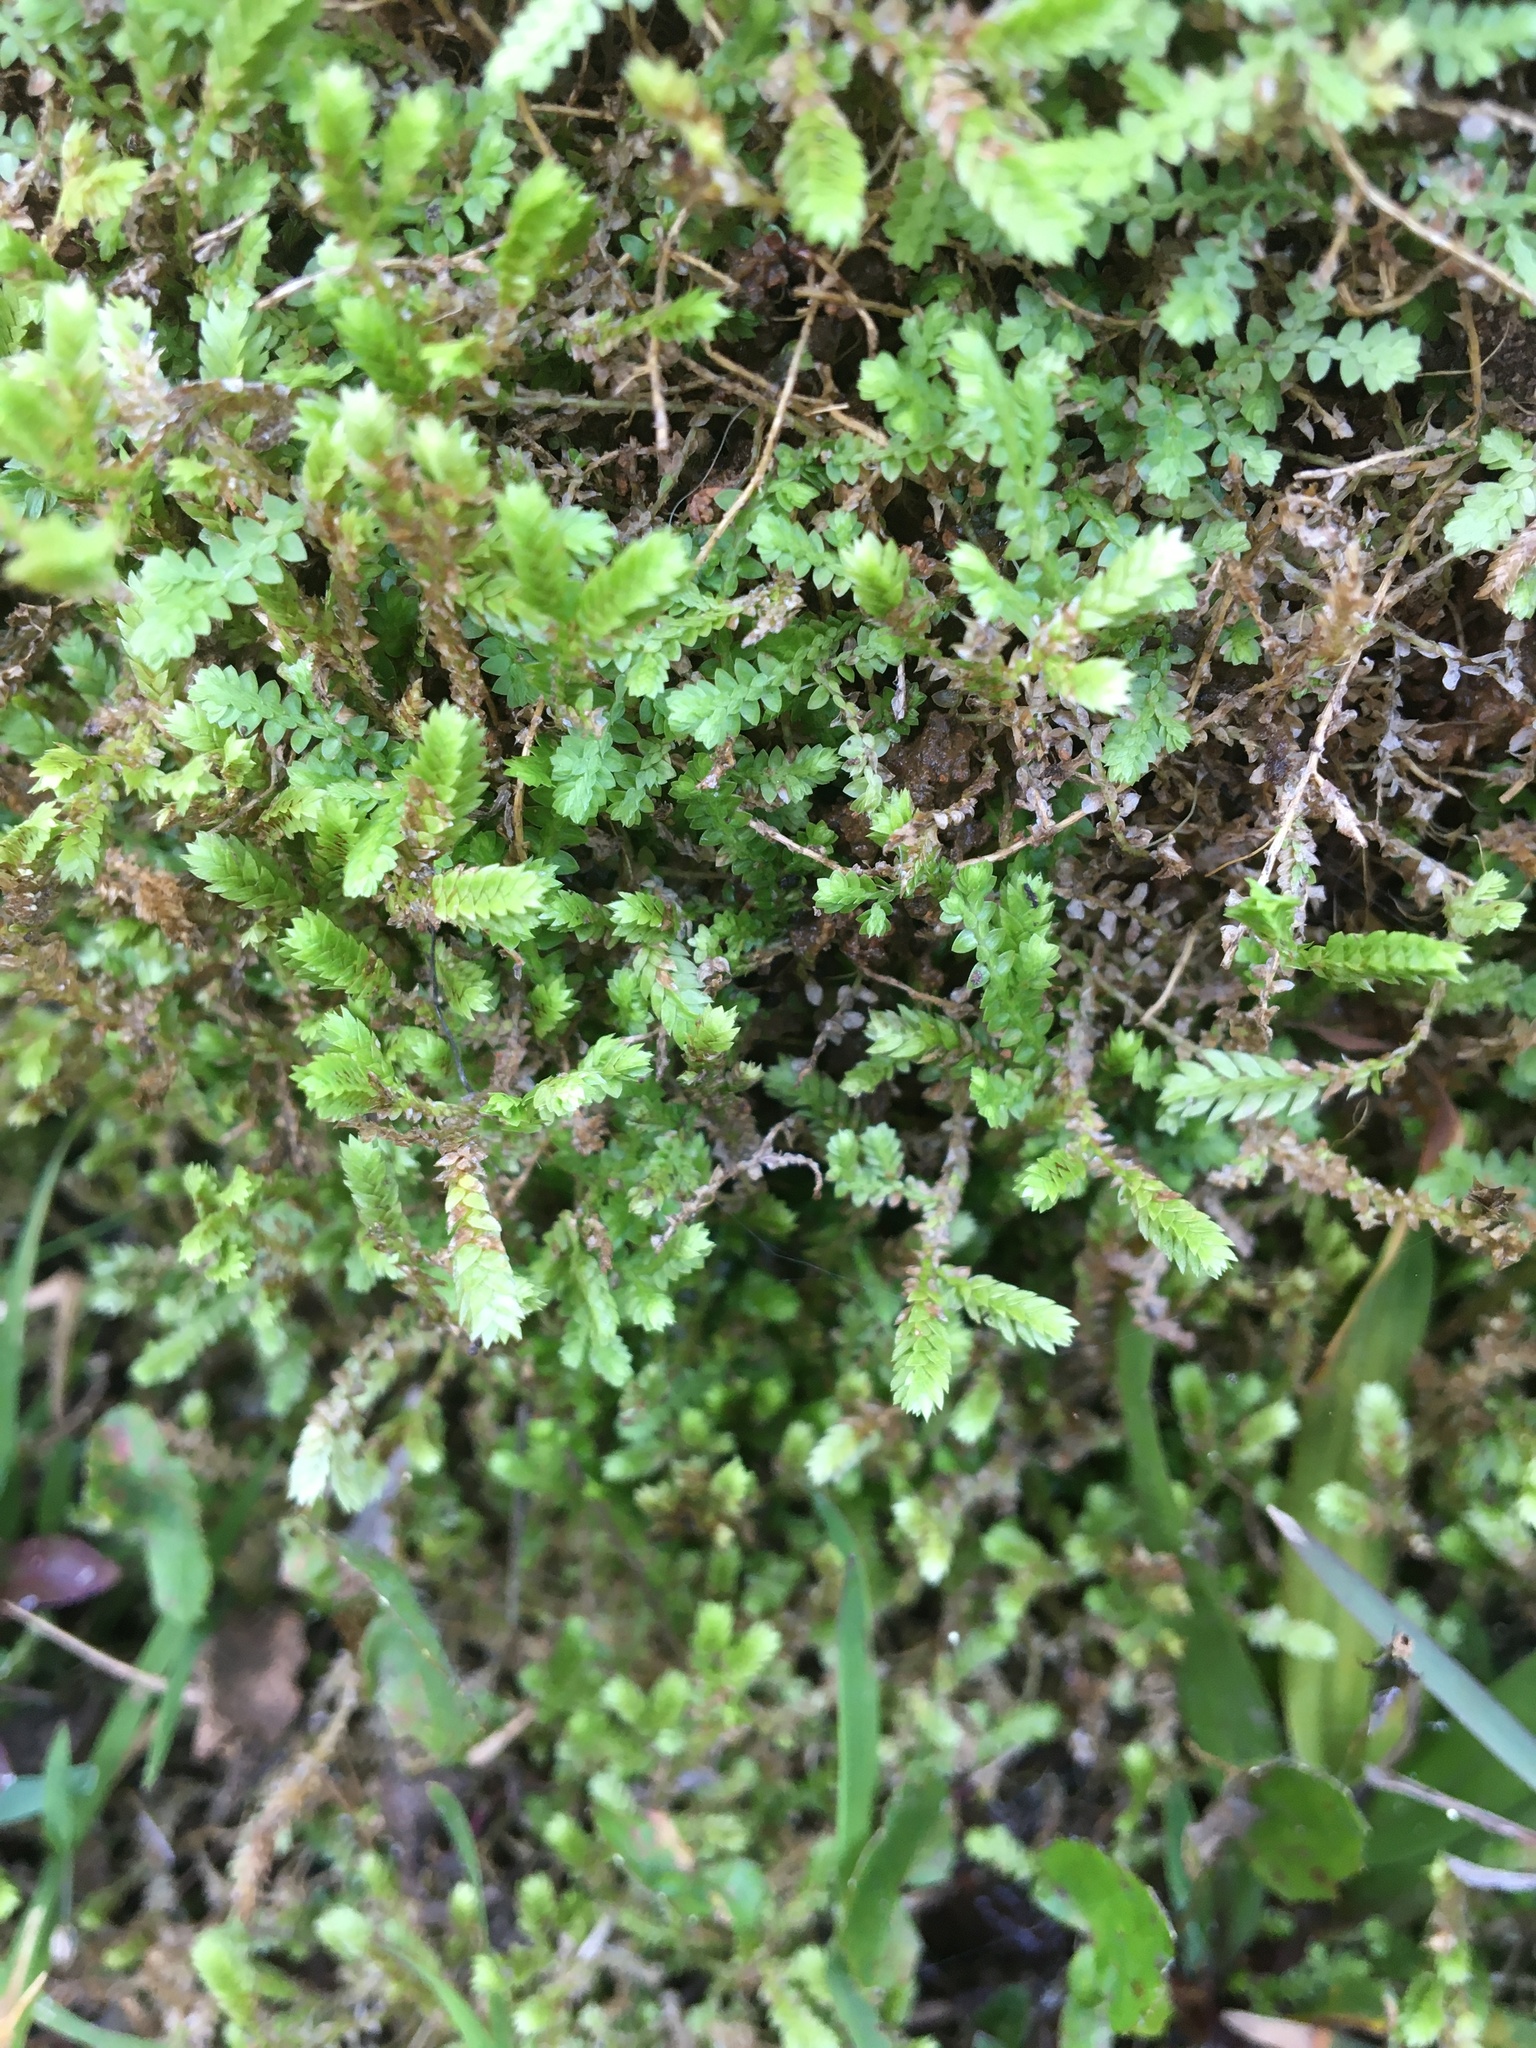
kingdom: Plantae
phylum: Tracheophyta
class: Lycopodiopsida
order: Selaginellales
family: Selaginellaceae
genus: Selaginella
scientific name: Selaginella apoda
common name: Creeping spikemoss
